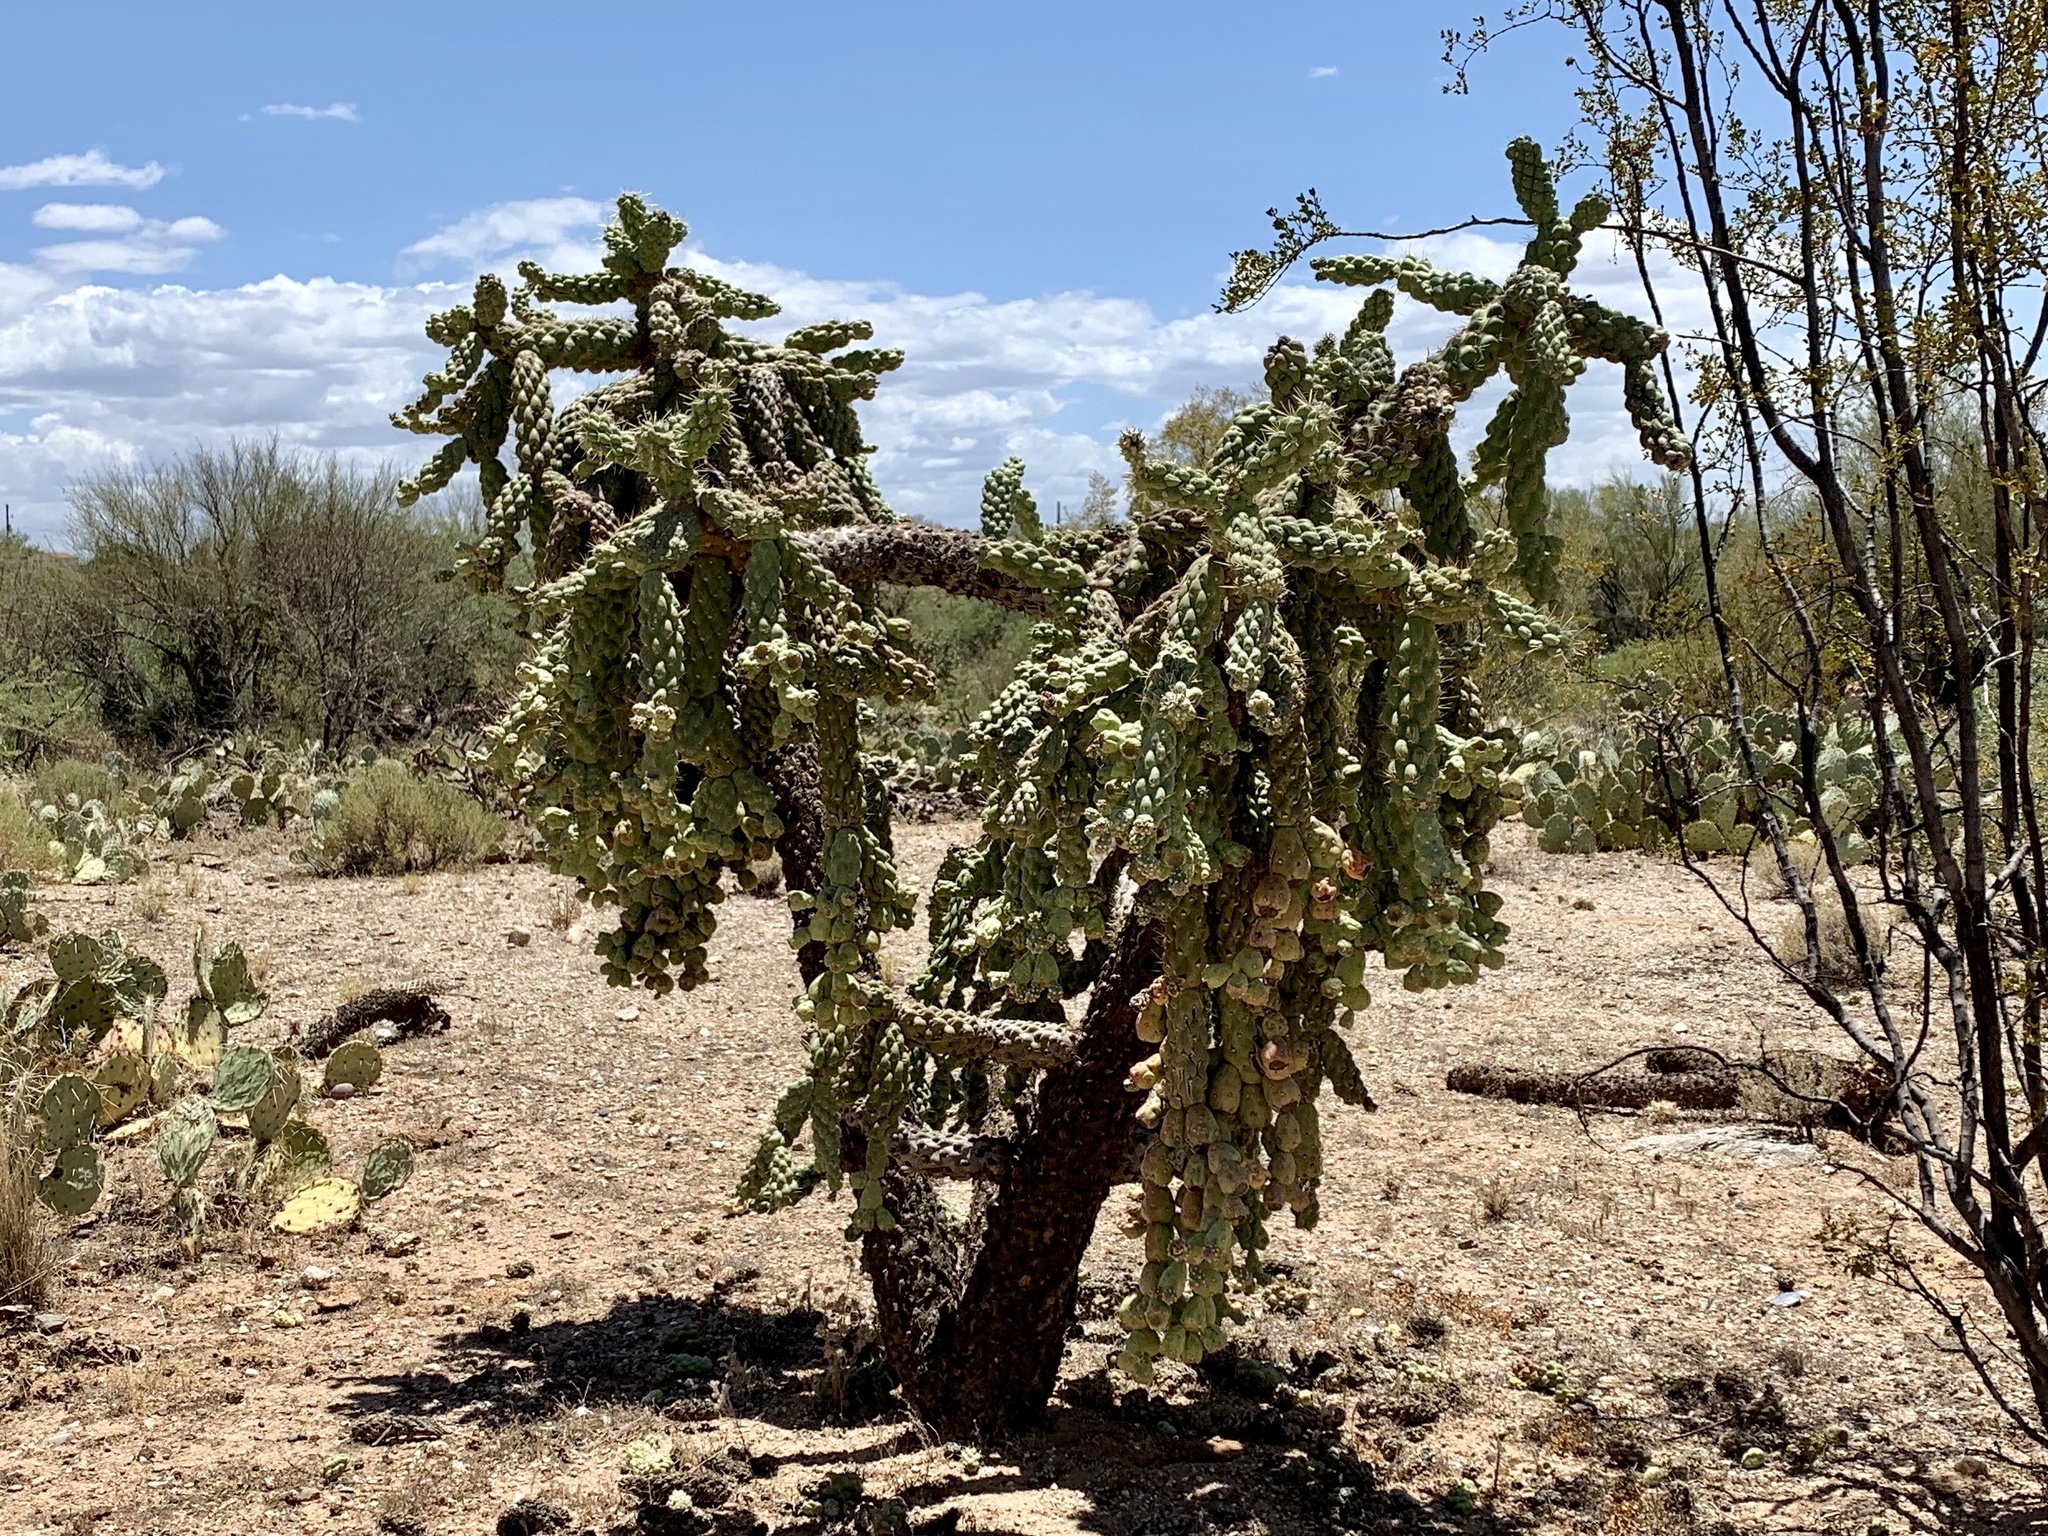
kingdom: Plantae
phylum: Tracheophyta
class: Magnoliopsida
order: Caryophyllales
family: Cactaceae
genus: Cylindropuntia
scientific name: Cylindropuntia fulgida
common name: Jumping cholla
